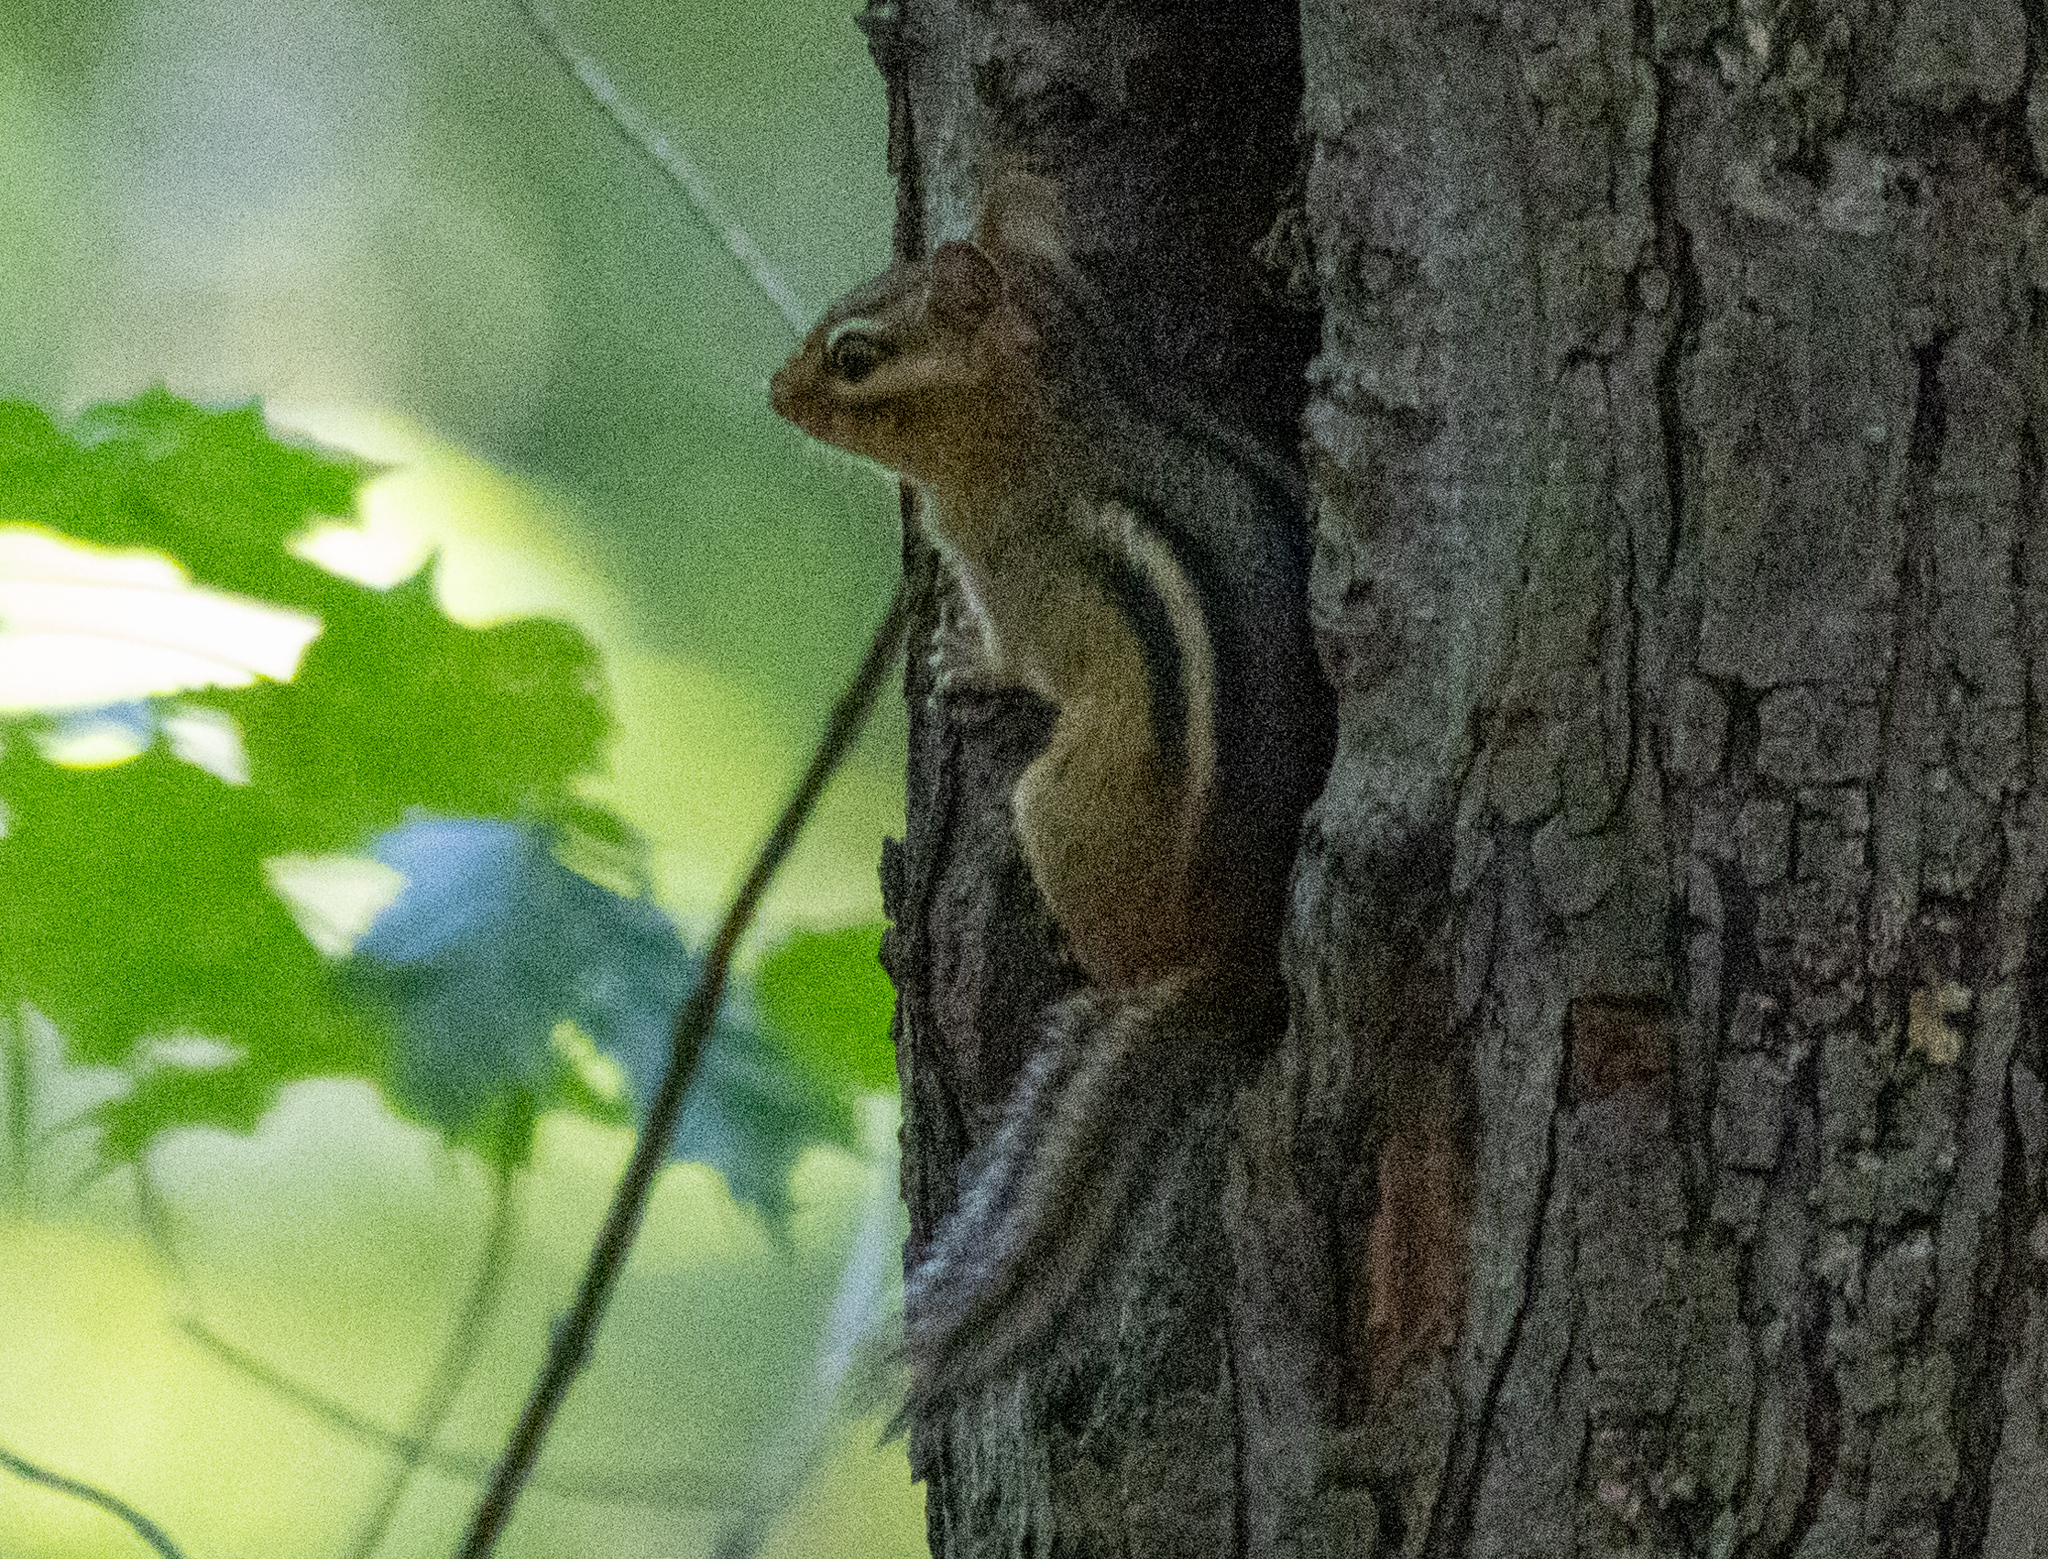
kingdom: Animalia
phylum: Chordata
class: Mammalia
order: Rodentia
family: Sciuridae
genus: Tamias
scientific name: Tamias striatus
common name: Eastern chipmunk
